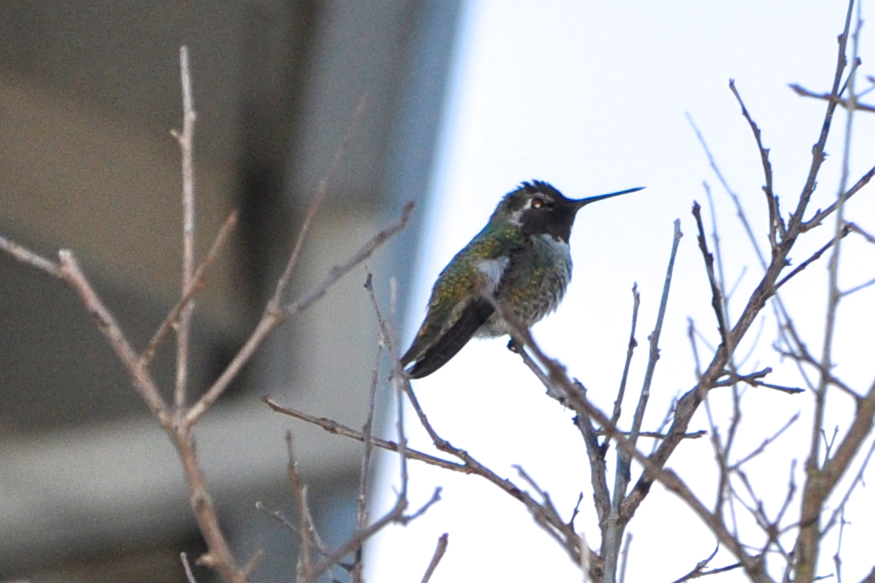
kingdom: Animalia
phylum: Chordata
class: Aves
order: Apodiformes
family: Trochilidae
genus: Calypte
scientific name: Calypte anna
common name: Anna's hummingbird
